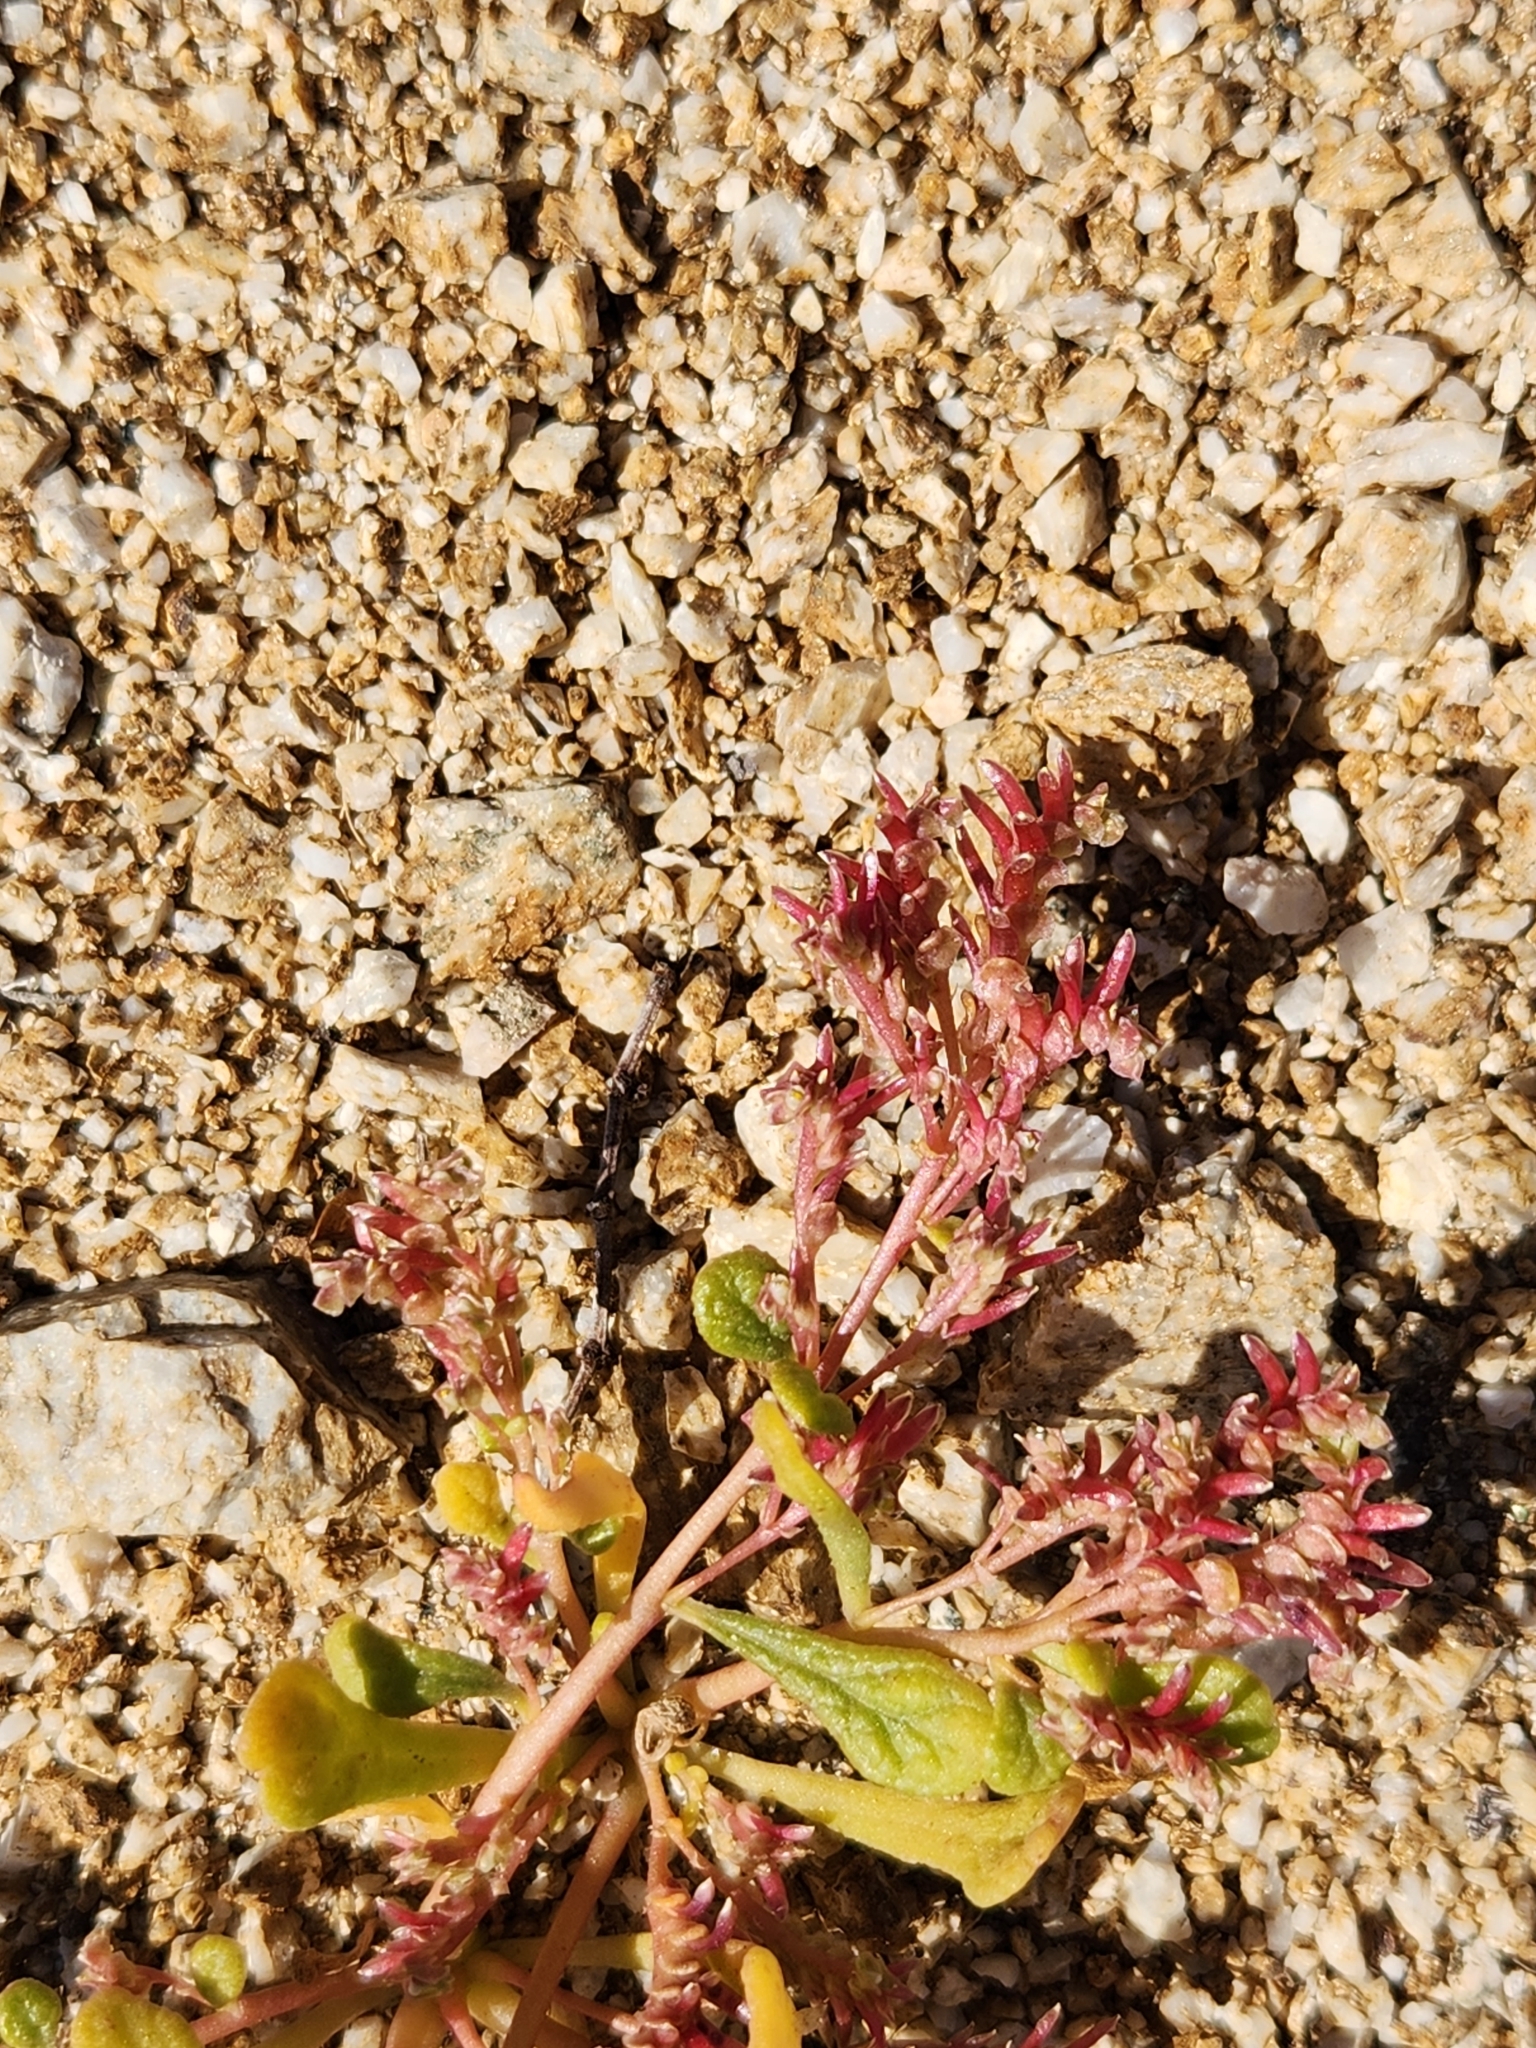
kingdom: Plantae
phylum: Tracheophyta
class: Magnoliopsida
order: Caryophyllales
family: Montiaceae
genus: Calyptridium
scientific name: Calyptridium monandrum
